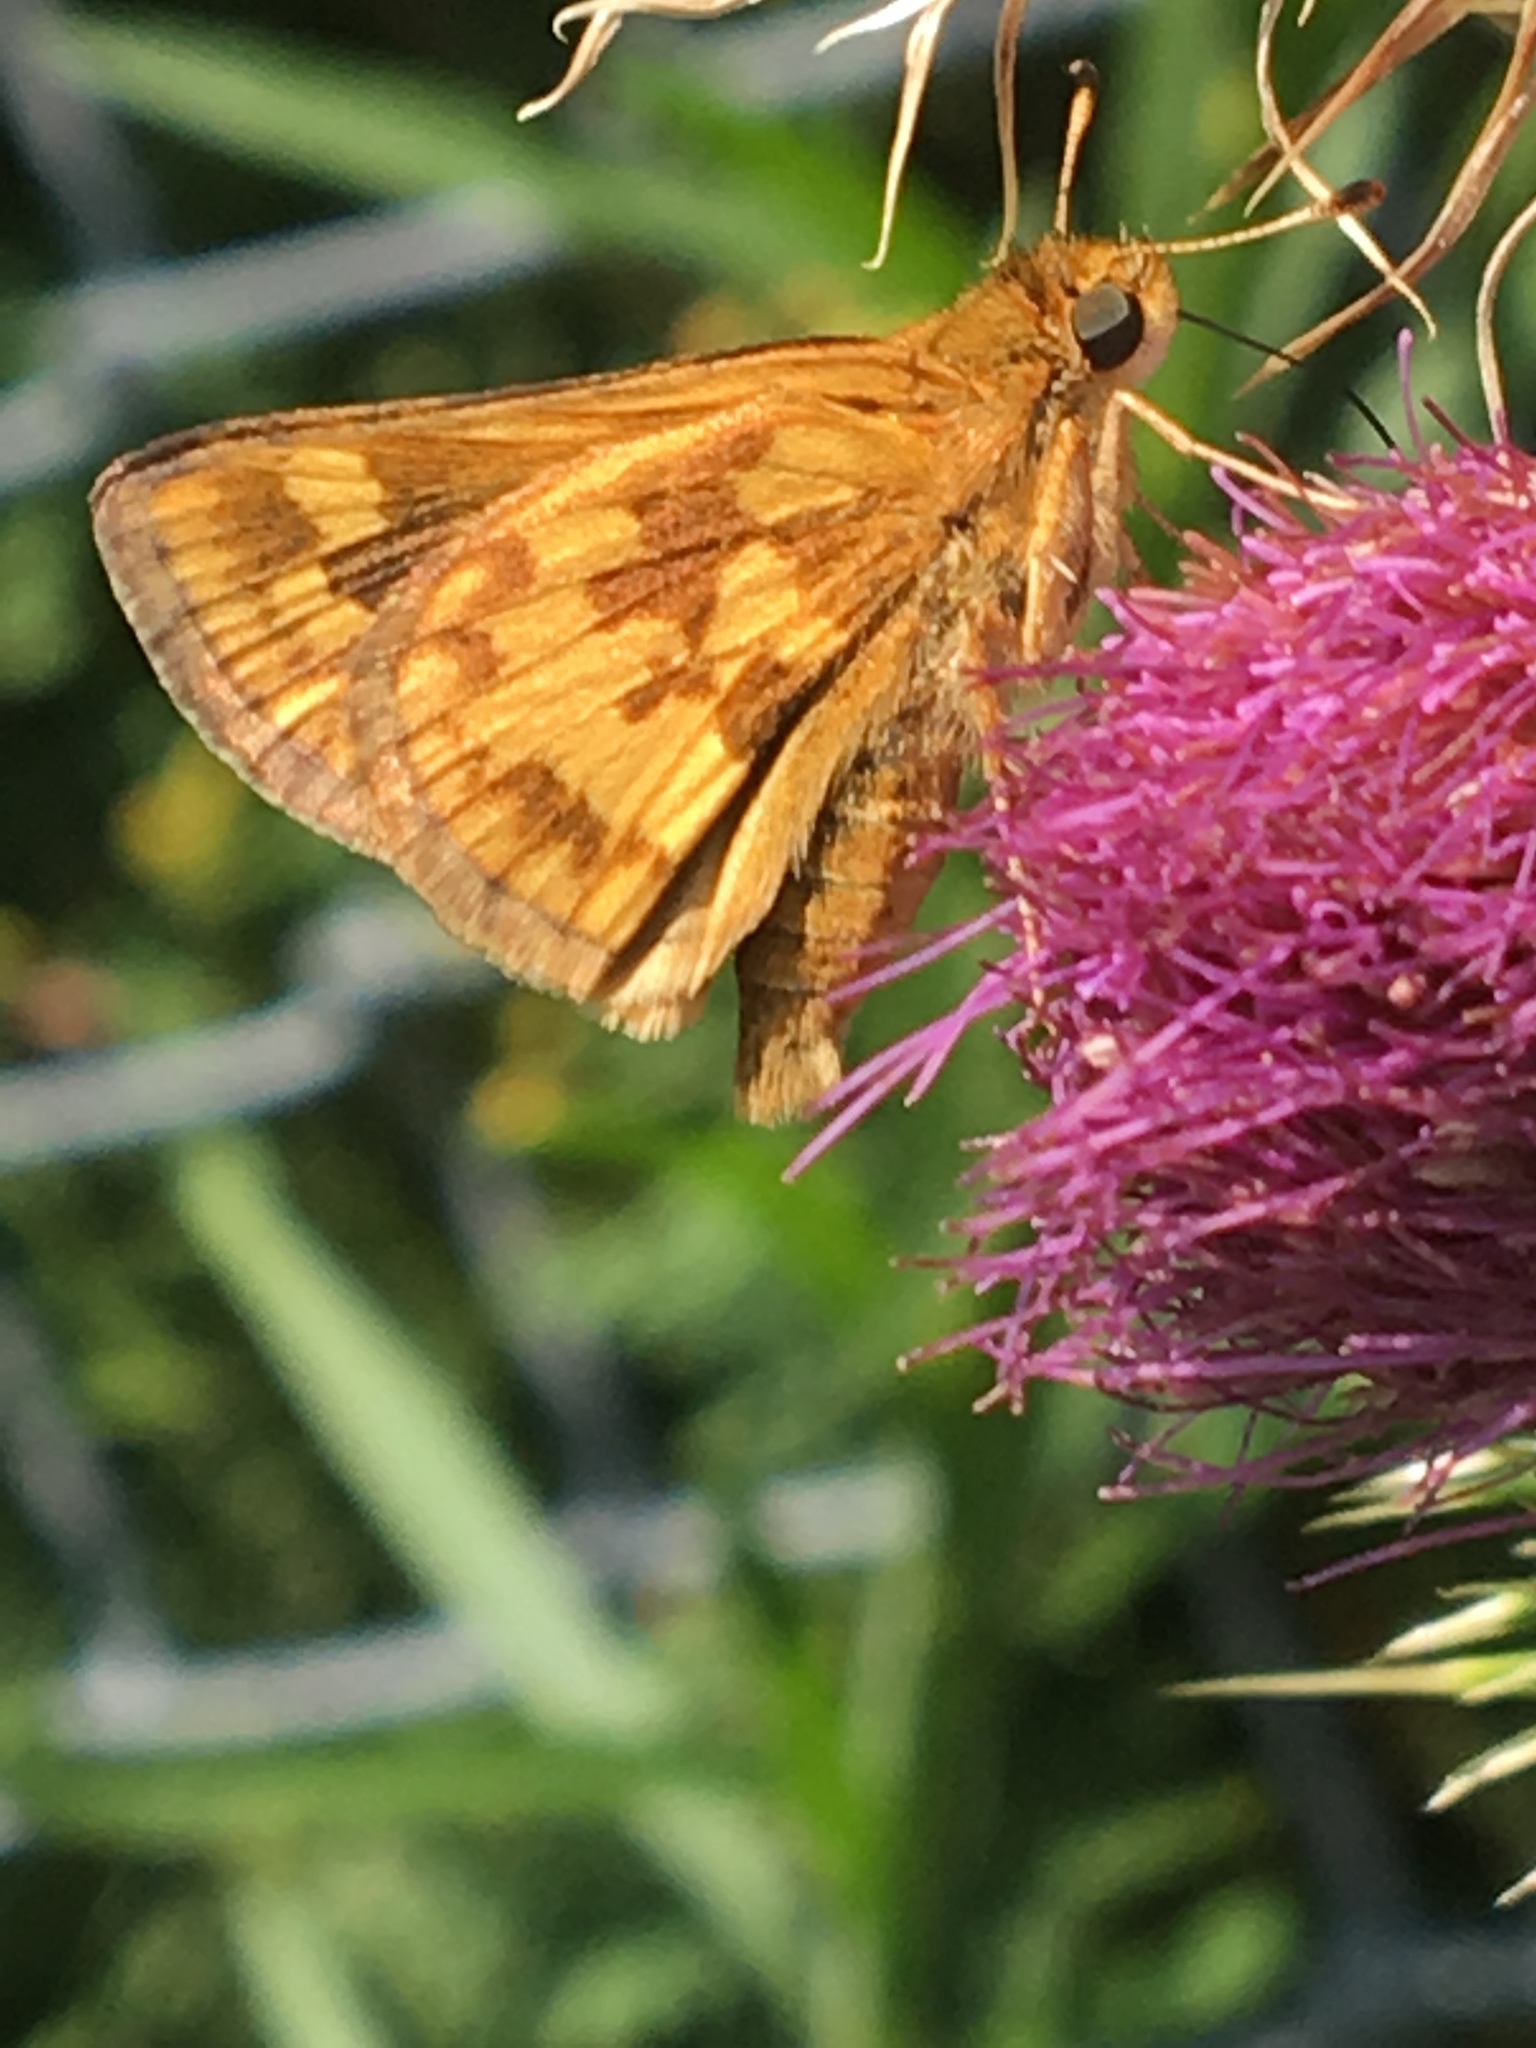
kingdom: Animalia
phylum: Arthropoda
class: Insecta
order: Lepidoptera
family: Hesperiidae
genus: Polites
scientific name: Polites coras
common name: Peck's skipper
